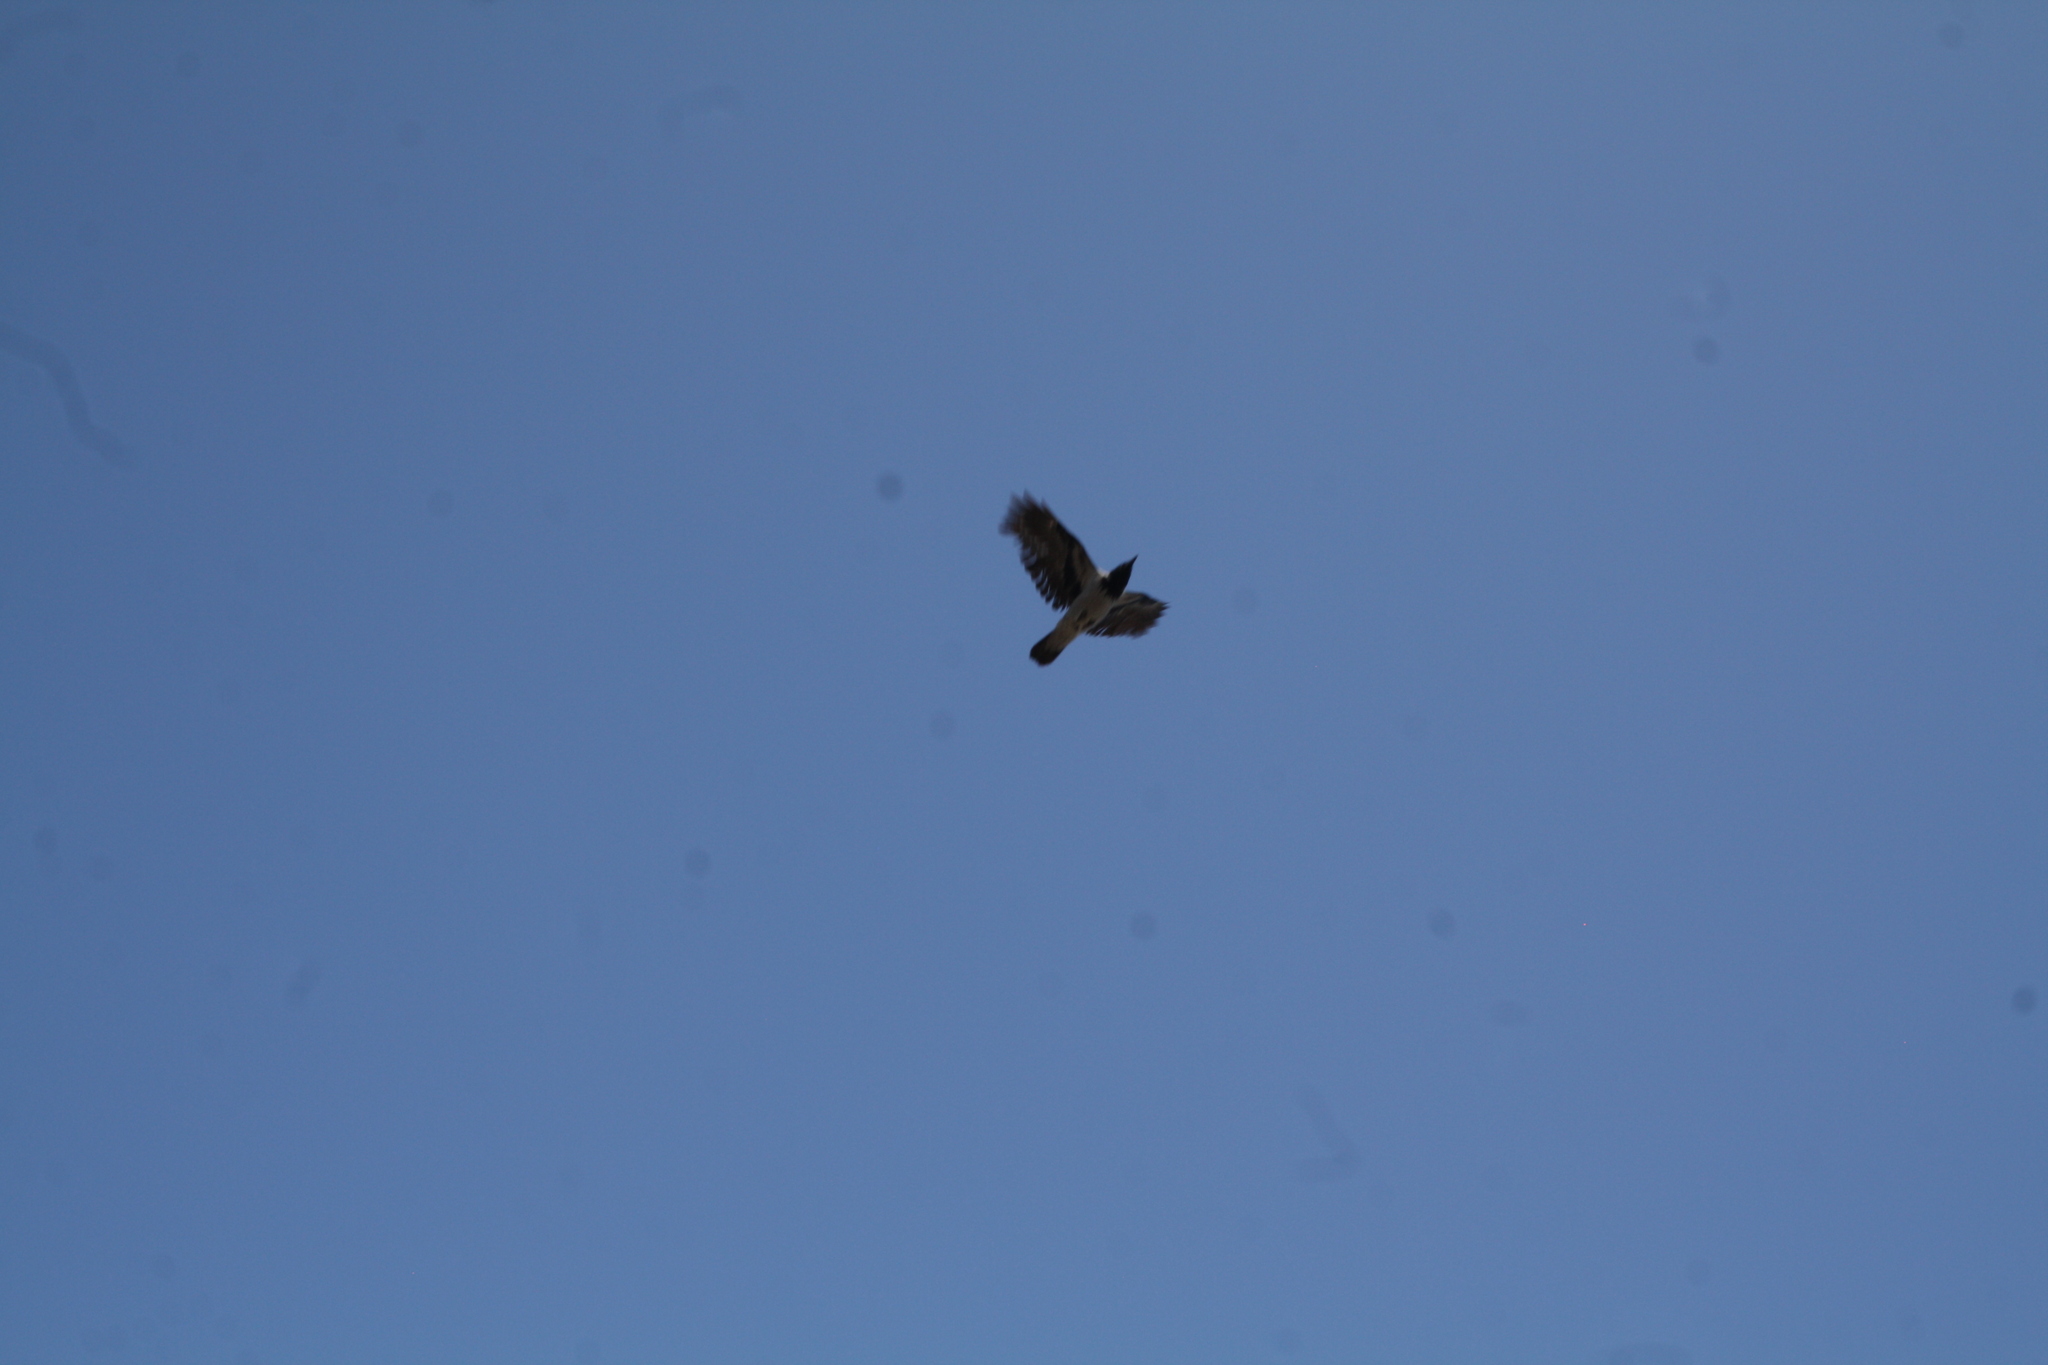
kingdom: Animalia
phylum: Chordata
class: Aves
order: Passeriformes
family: Corvidae
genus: Corvus
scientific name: Corvus cornix
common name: Hooded crow
